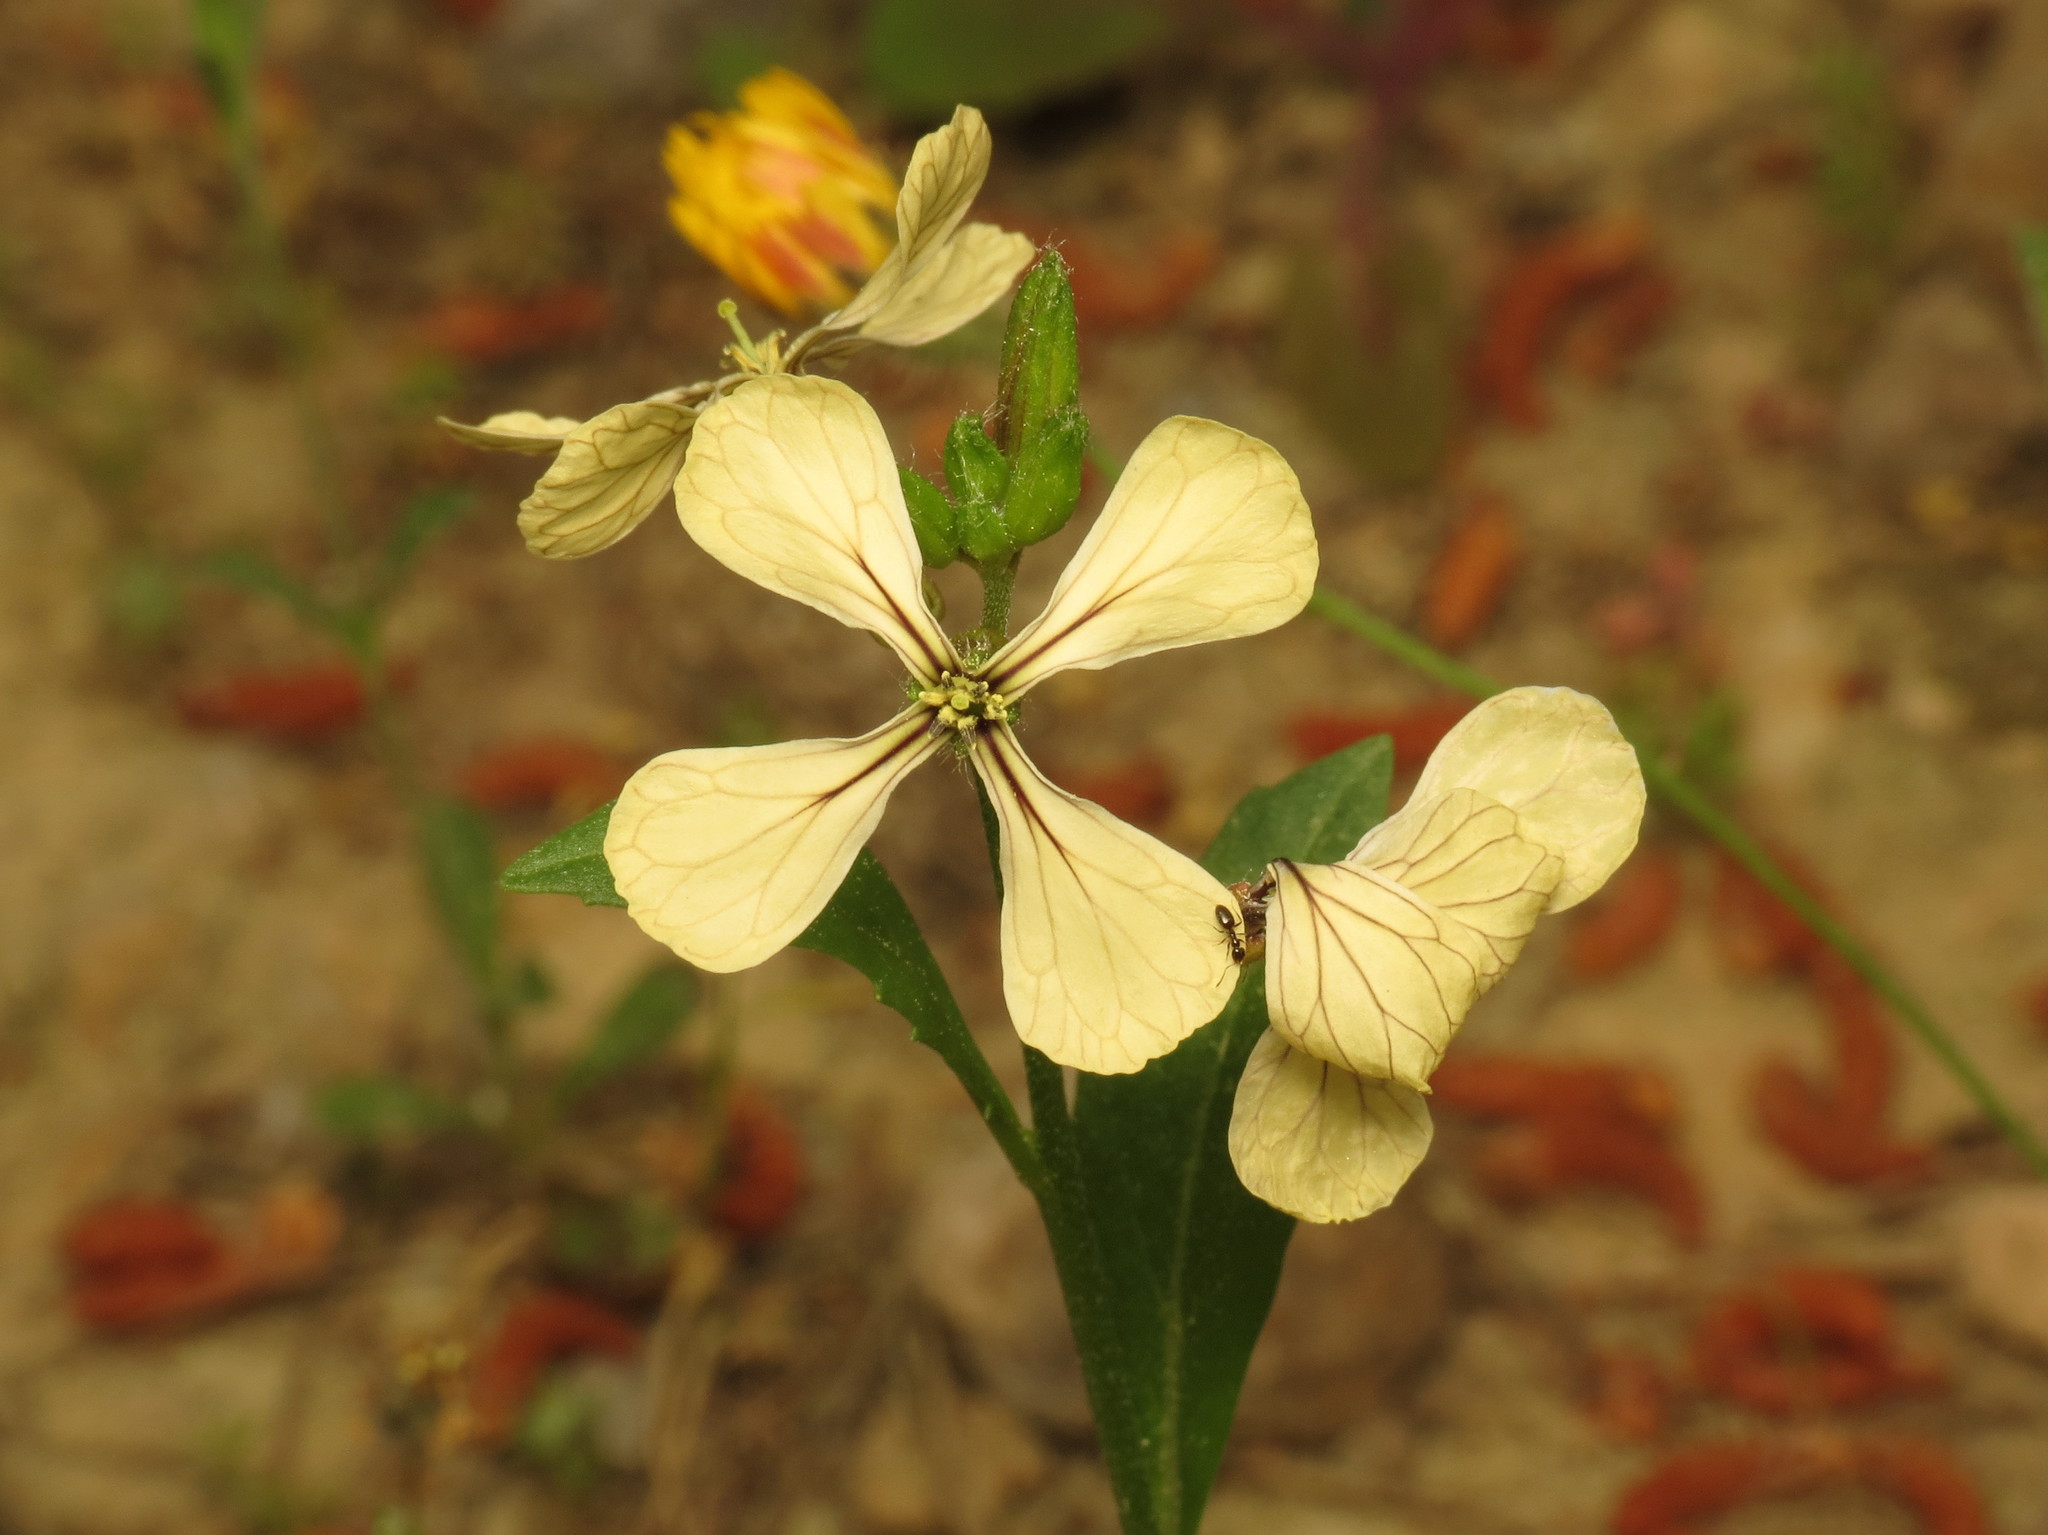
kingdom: Plantae
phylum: Tracheophyta
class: Magnoliopsida
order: Brassicales
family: Brassicaceae
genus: Eruca
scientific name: Eruca vesicaria
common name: Garden rocket
